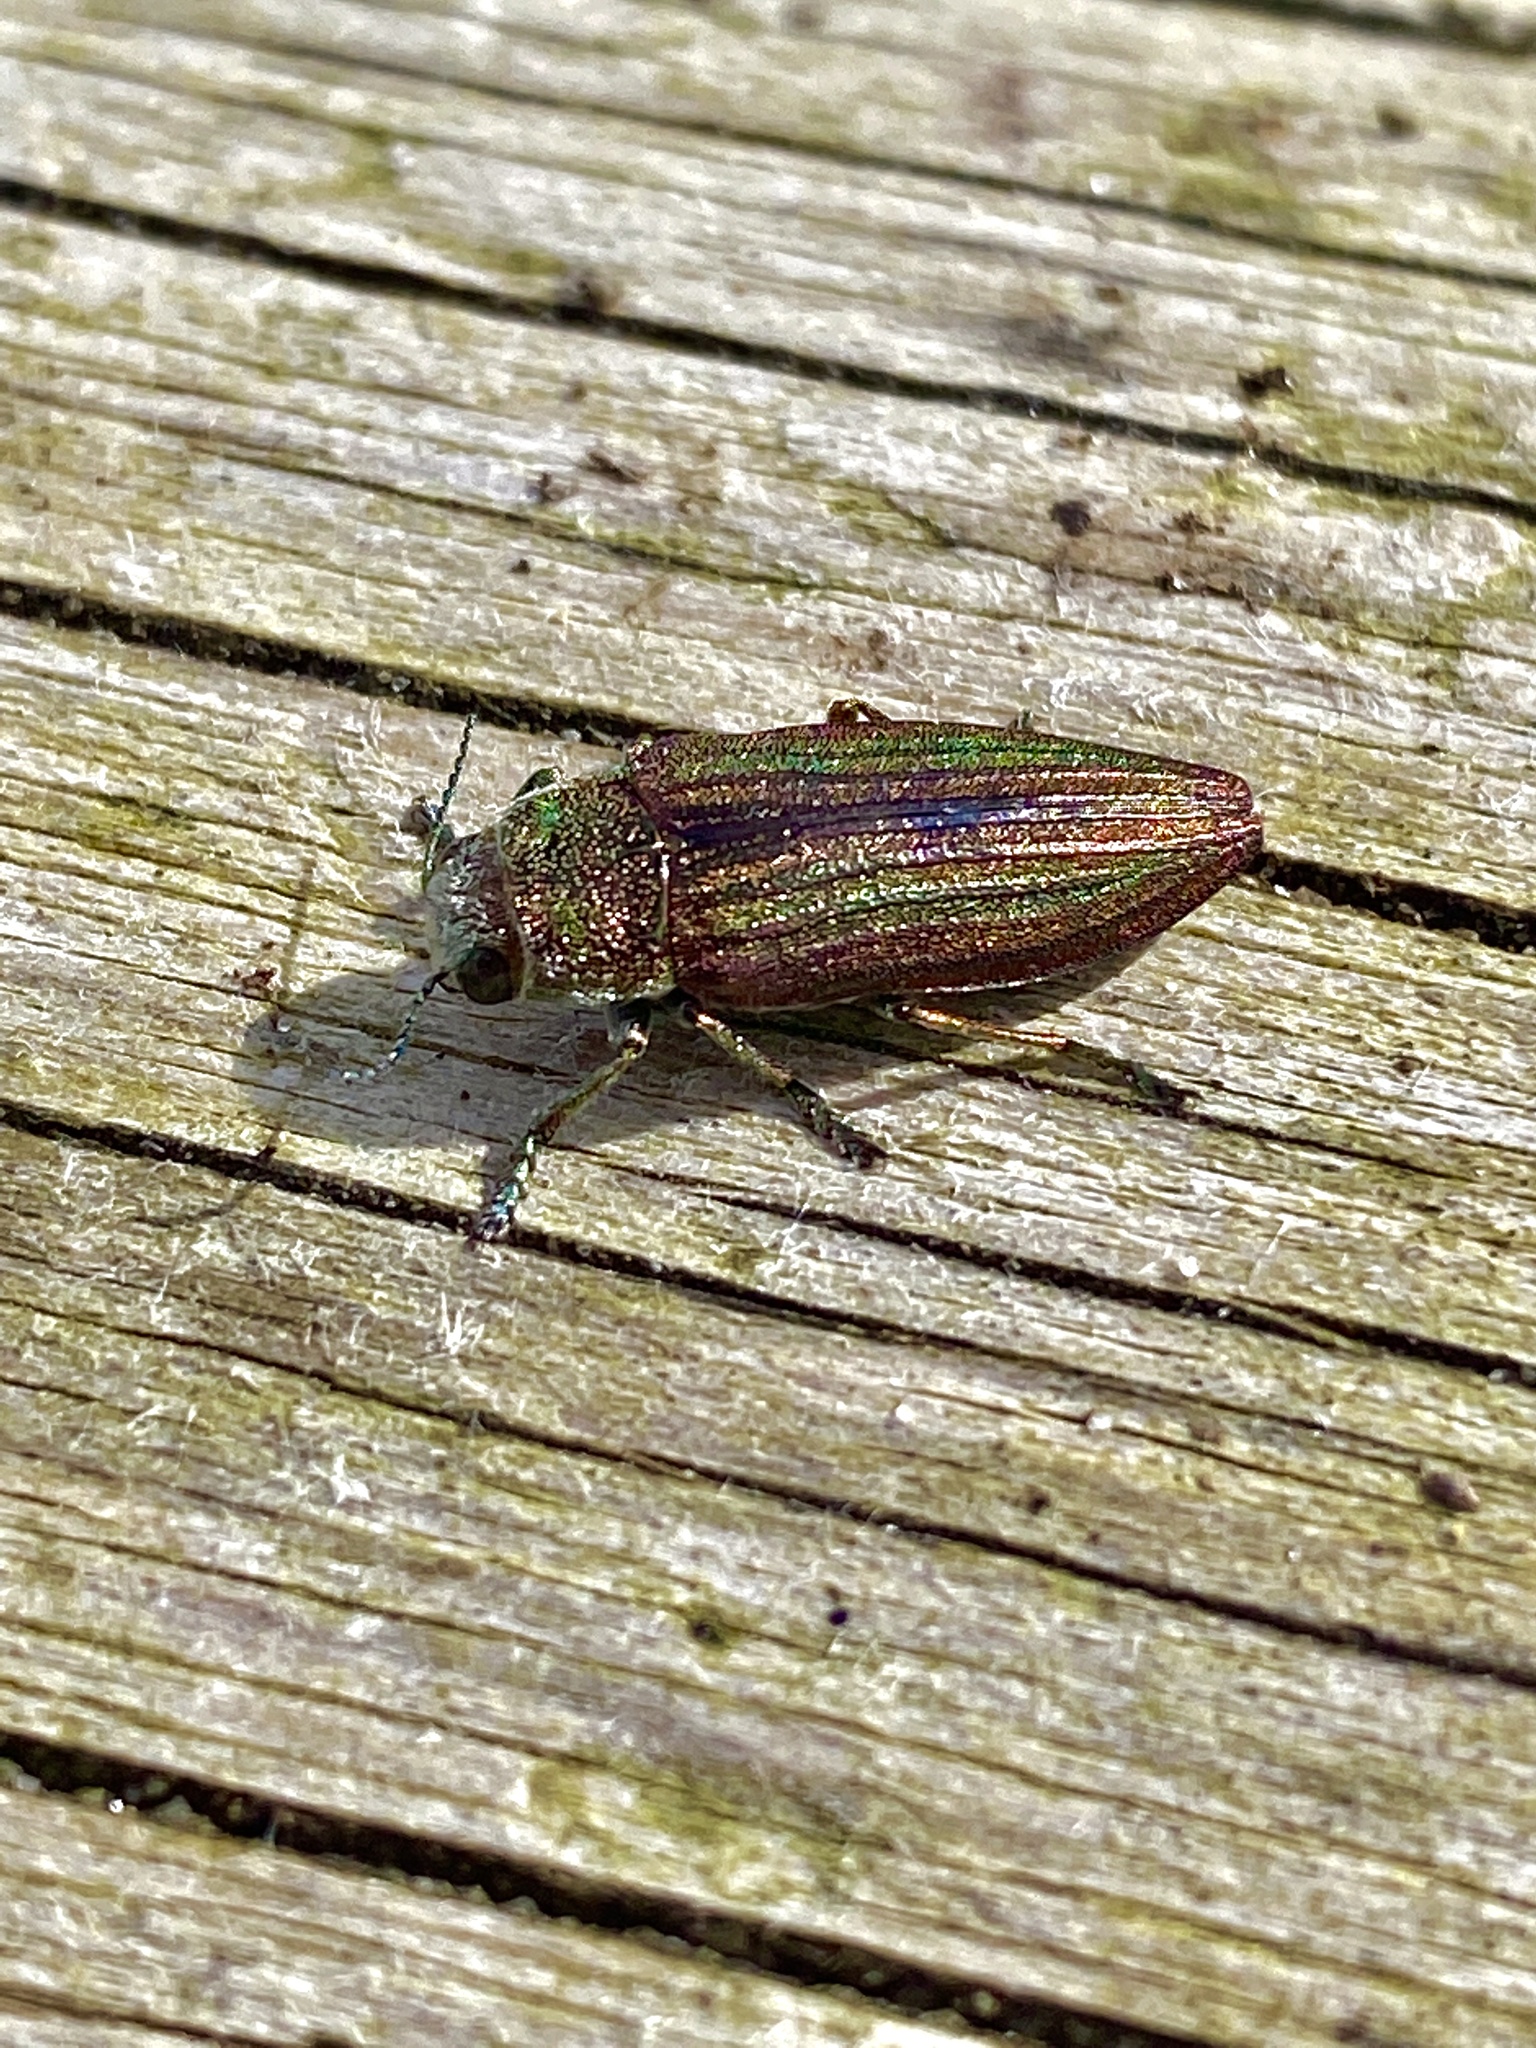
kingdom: Animalia
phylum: Arthropoda
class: Insecta
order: Coleoptera
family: Buprestidae
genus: Buprestis
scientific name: Buprestis striata
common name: Striated jewel beetle
